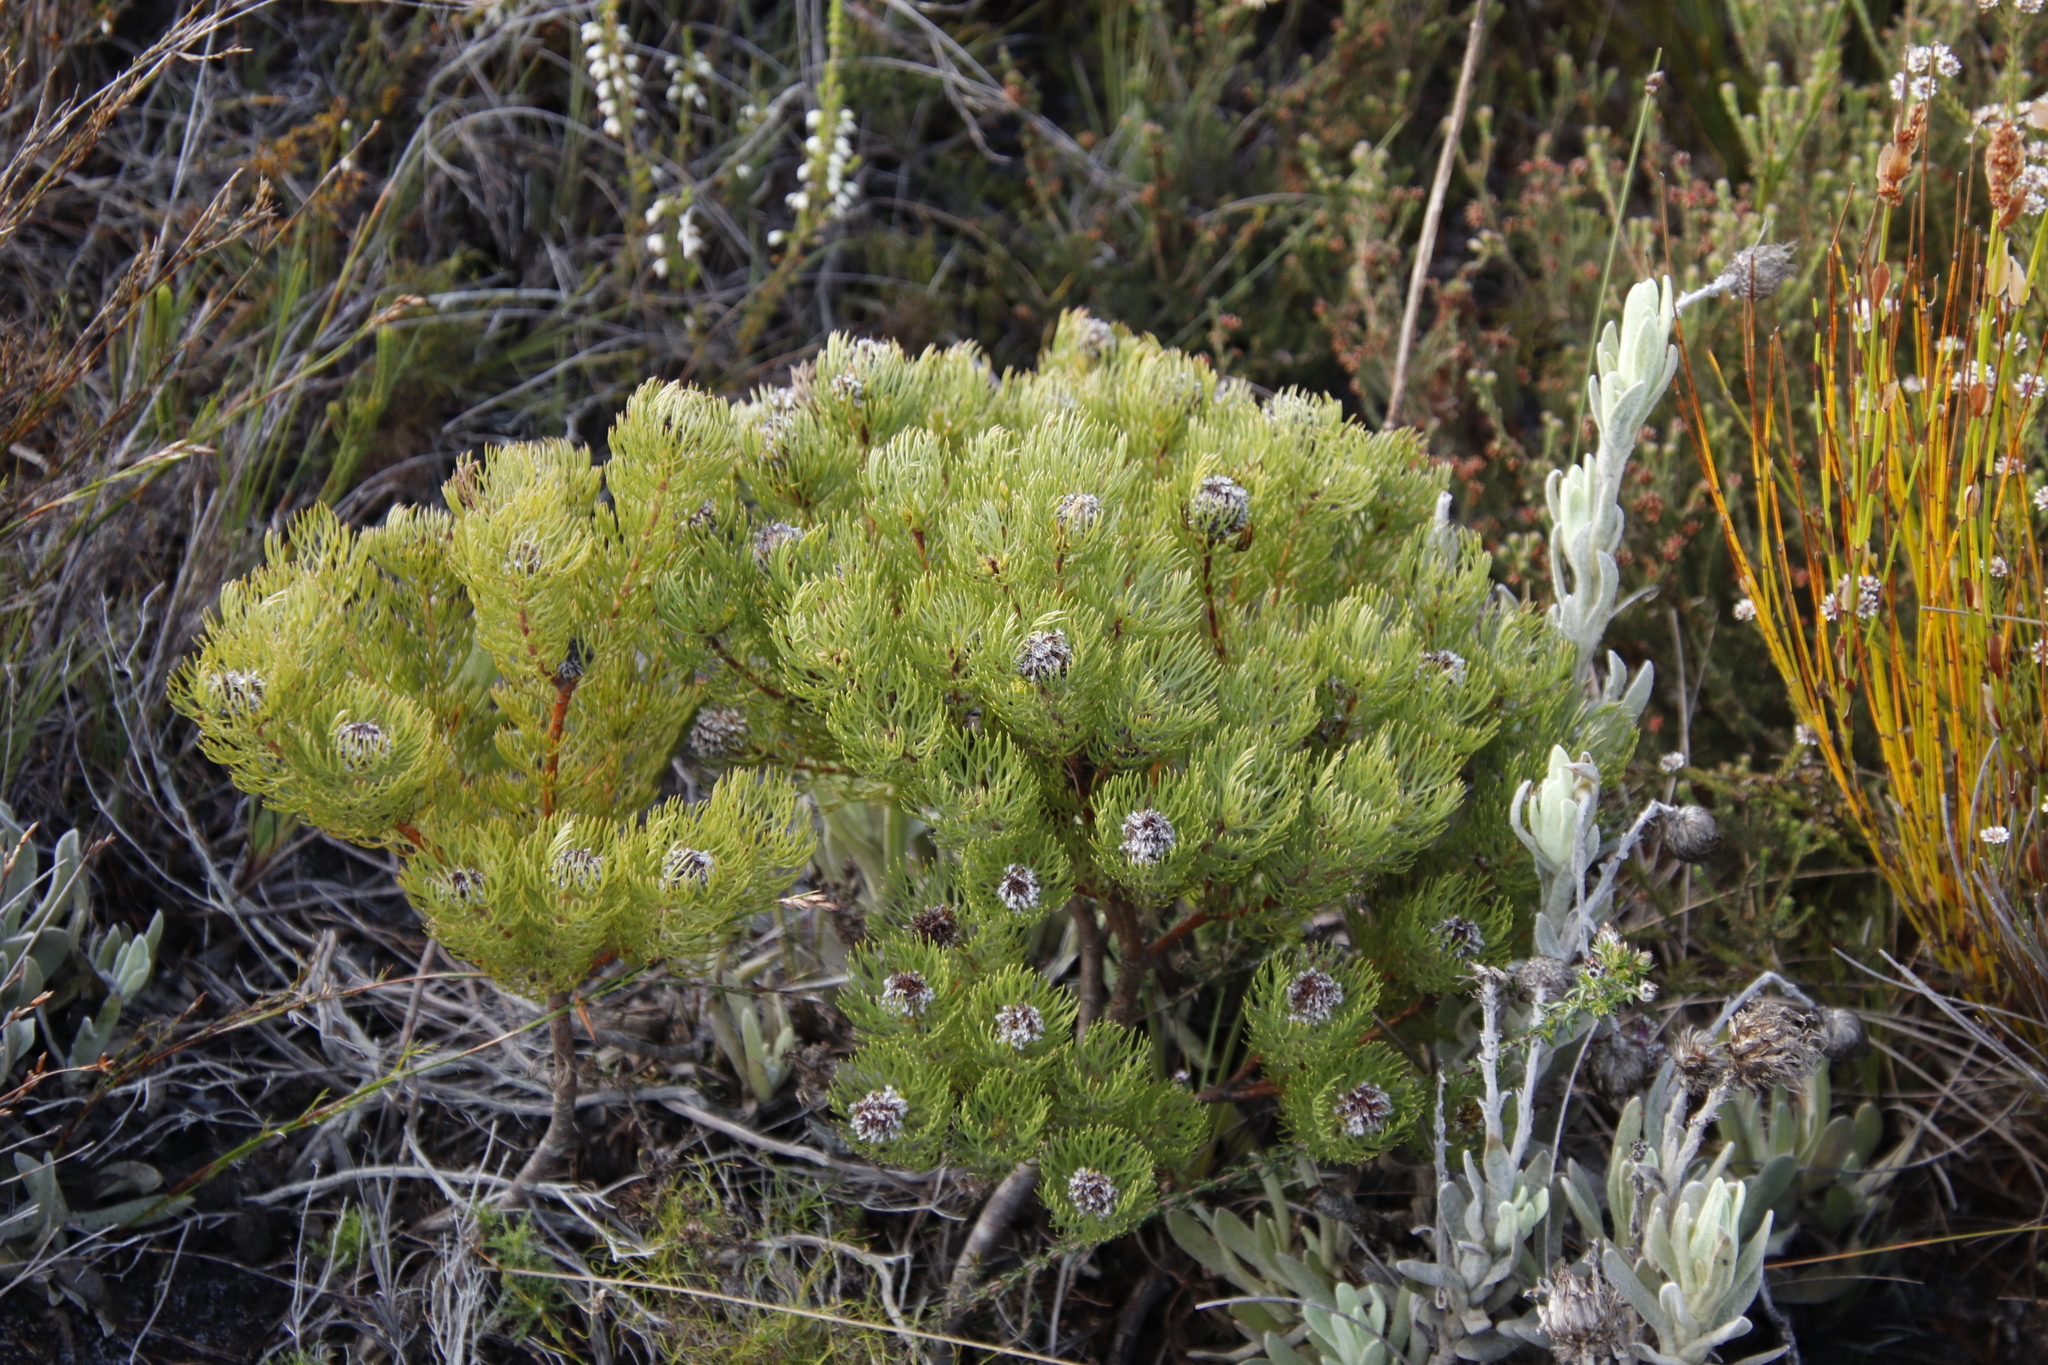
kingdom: Plantae
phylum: Tracheophyta
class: Magnoliopsida
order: Proteales
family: Proteaceae
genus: Serruria
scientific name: Serruria villosa
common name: Golden spiderhead
